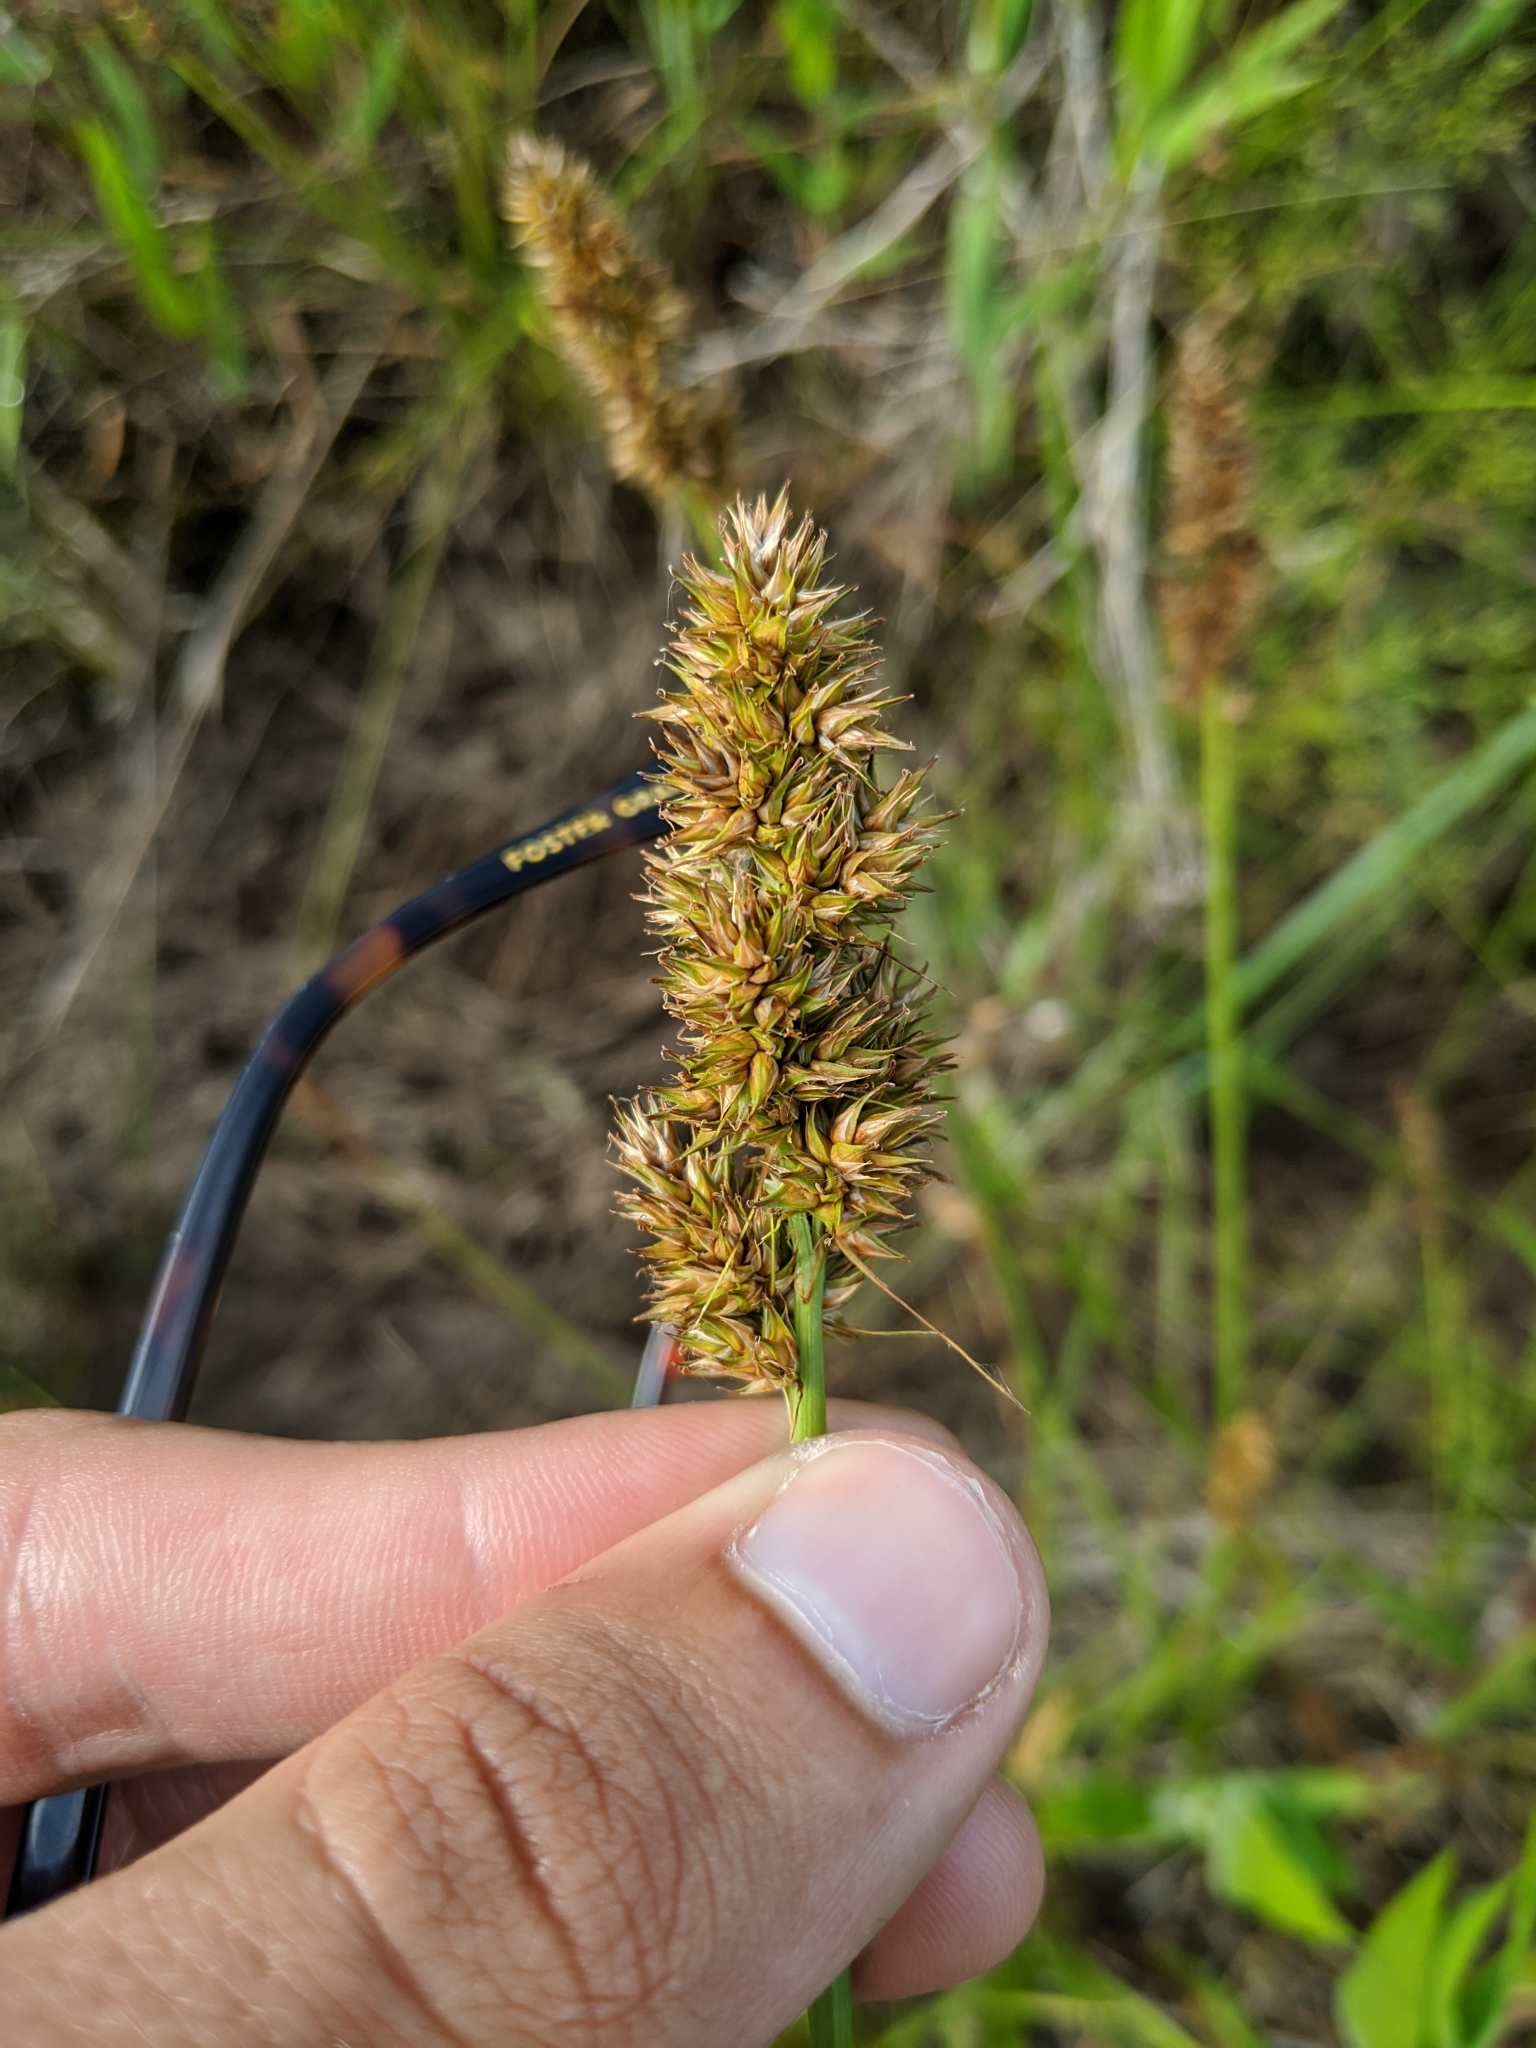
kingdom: Plantae
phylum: Tracheophyta
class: Liliopsida
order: Poales
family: Cyperaceae
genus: Carex
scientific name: Carex oklahomensis
